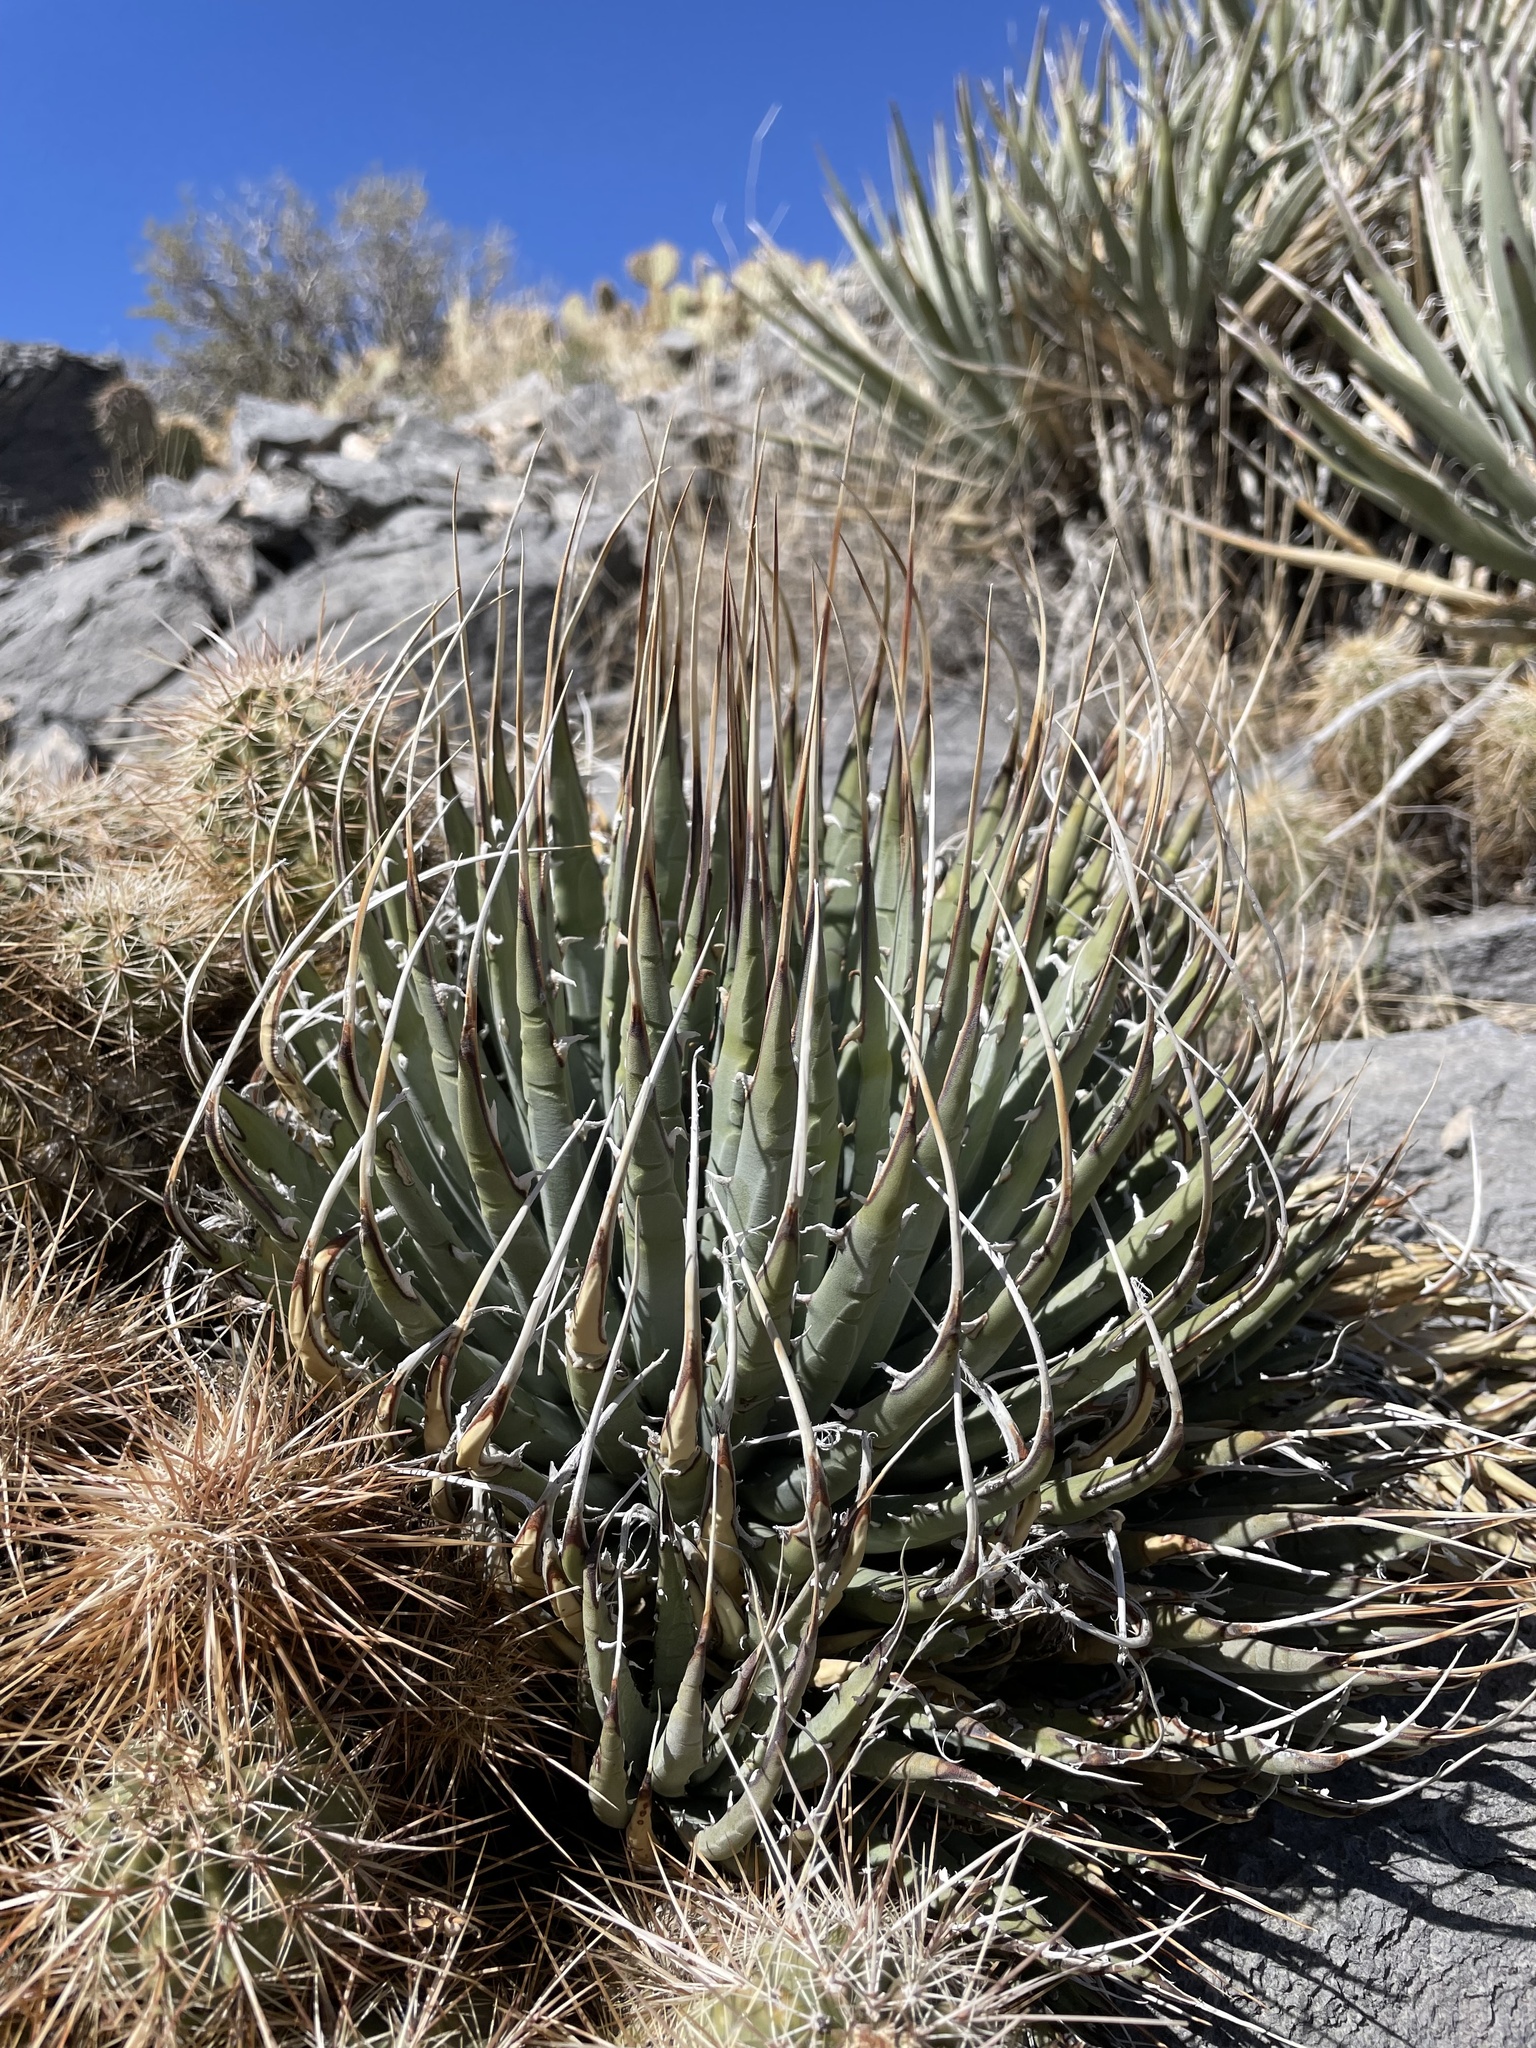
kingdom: Plantae
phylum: Tracheophyta
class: Liliopsida
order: Asparagales
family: Asparagaceae
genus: Agave
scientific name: Agave utahensis
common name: Utah agave
